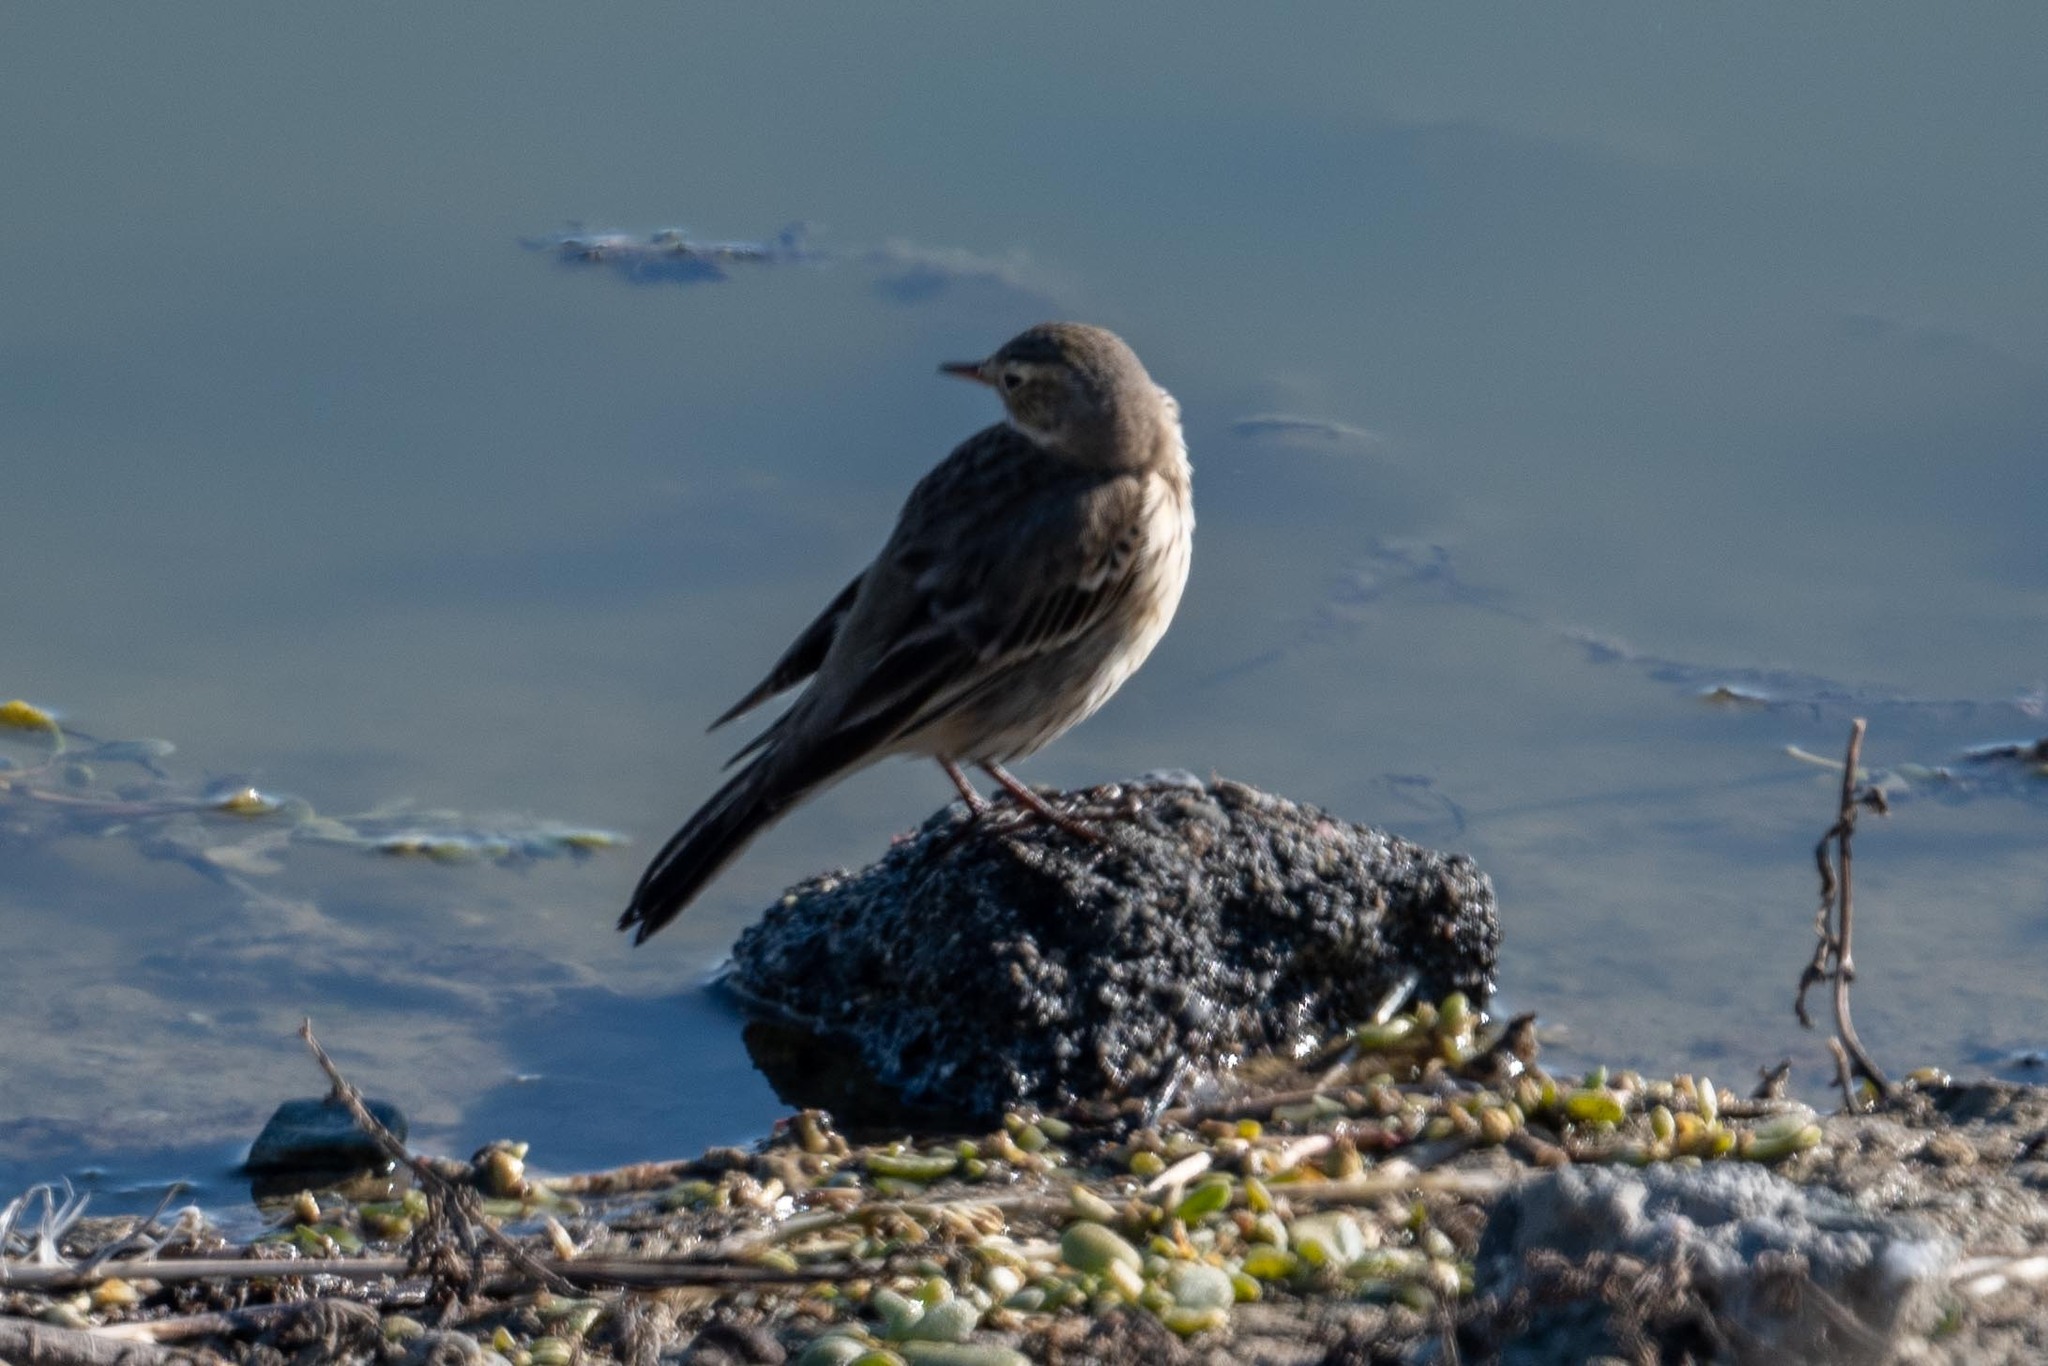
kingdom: Animalia
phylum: Chordata
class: Aves
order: Passeriformes
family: Motacillidae
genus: Anthus
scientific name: Anthus rubescens
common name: Buff-bellied pipit
